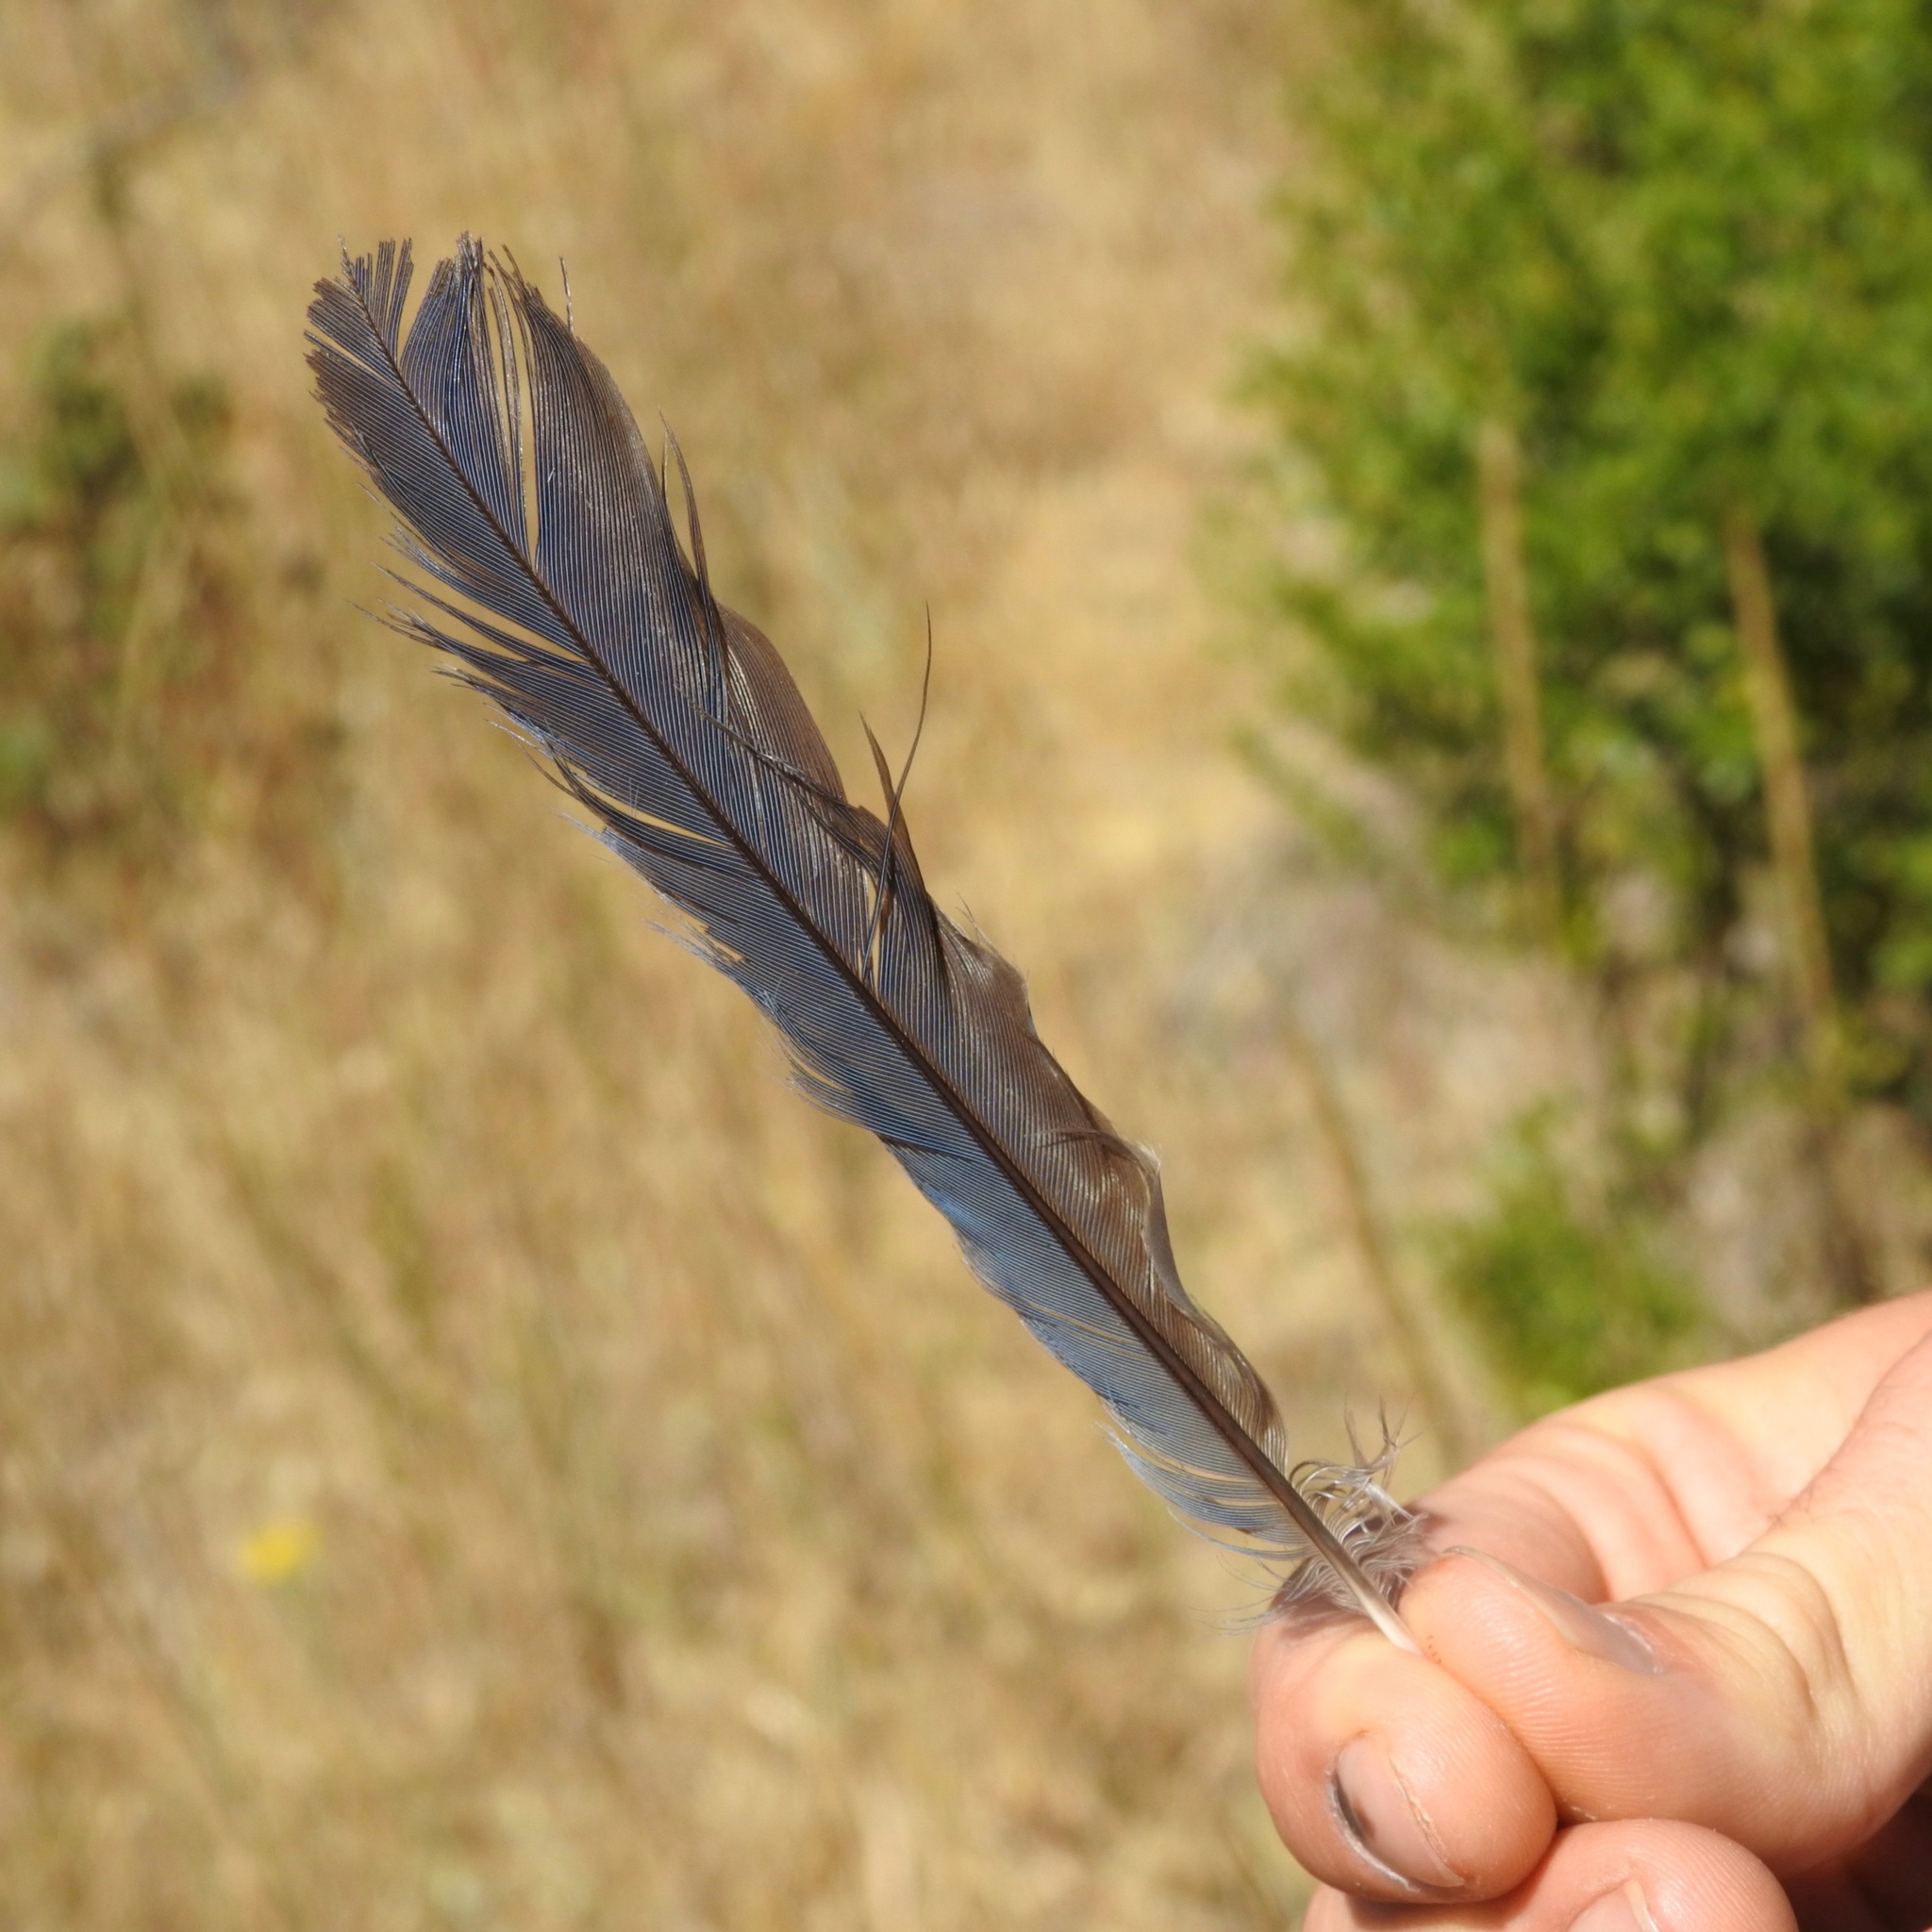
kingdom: Animalia
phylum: Chordata
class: Aves
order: Passeriformes
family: Corvidae
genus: Aphelocoma
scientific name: Aphelocoma californica
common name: California scrub-jay
